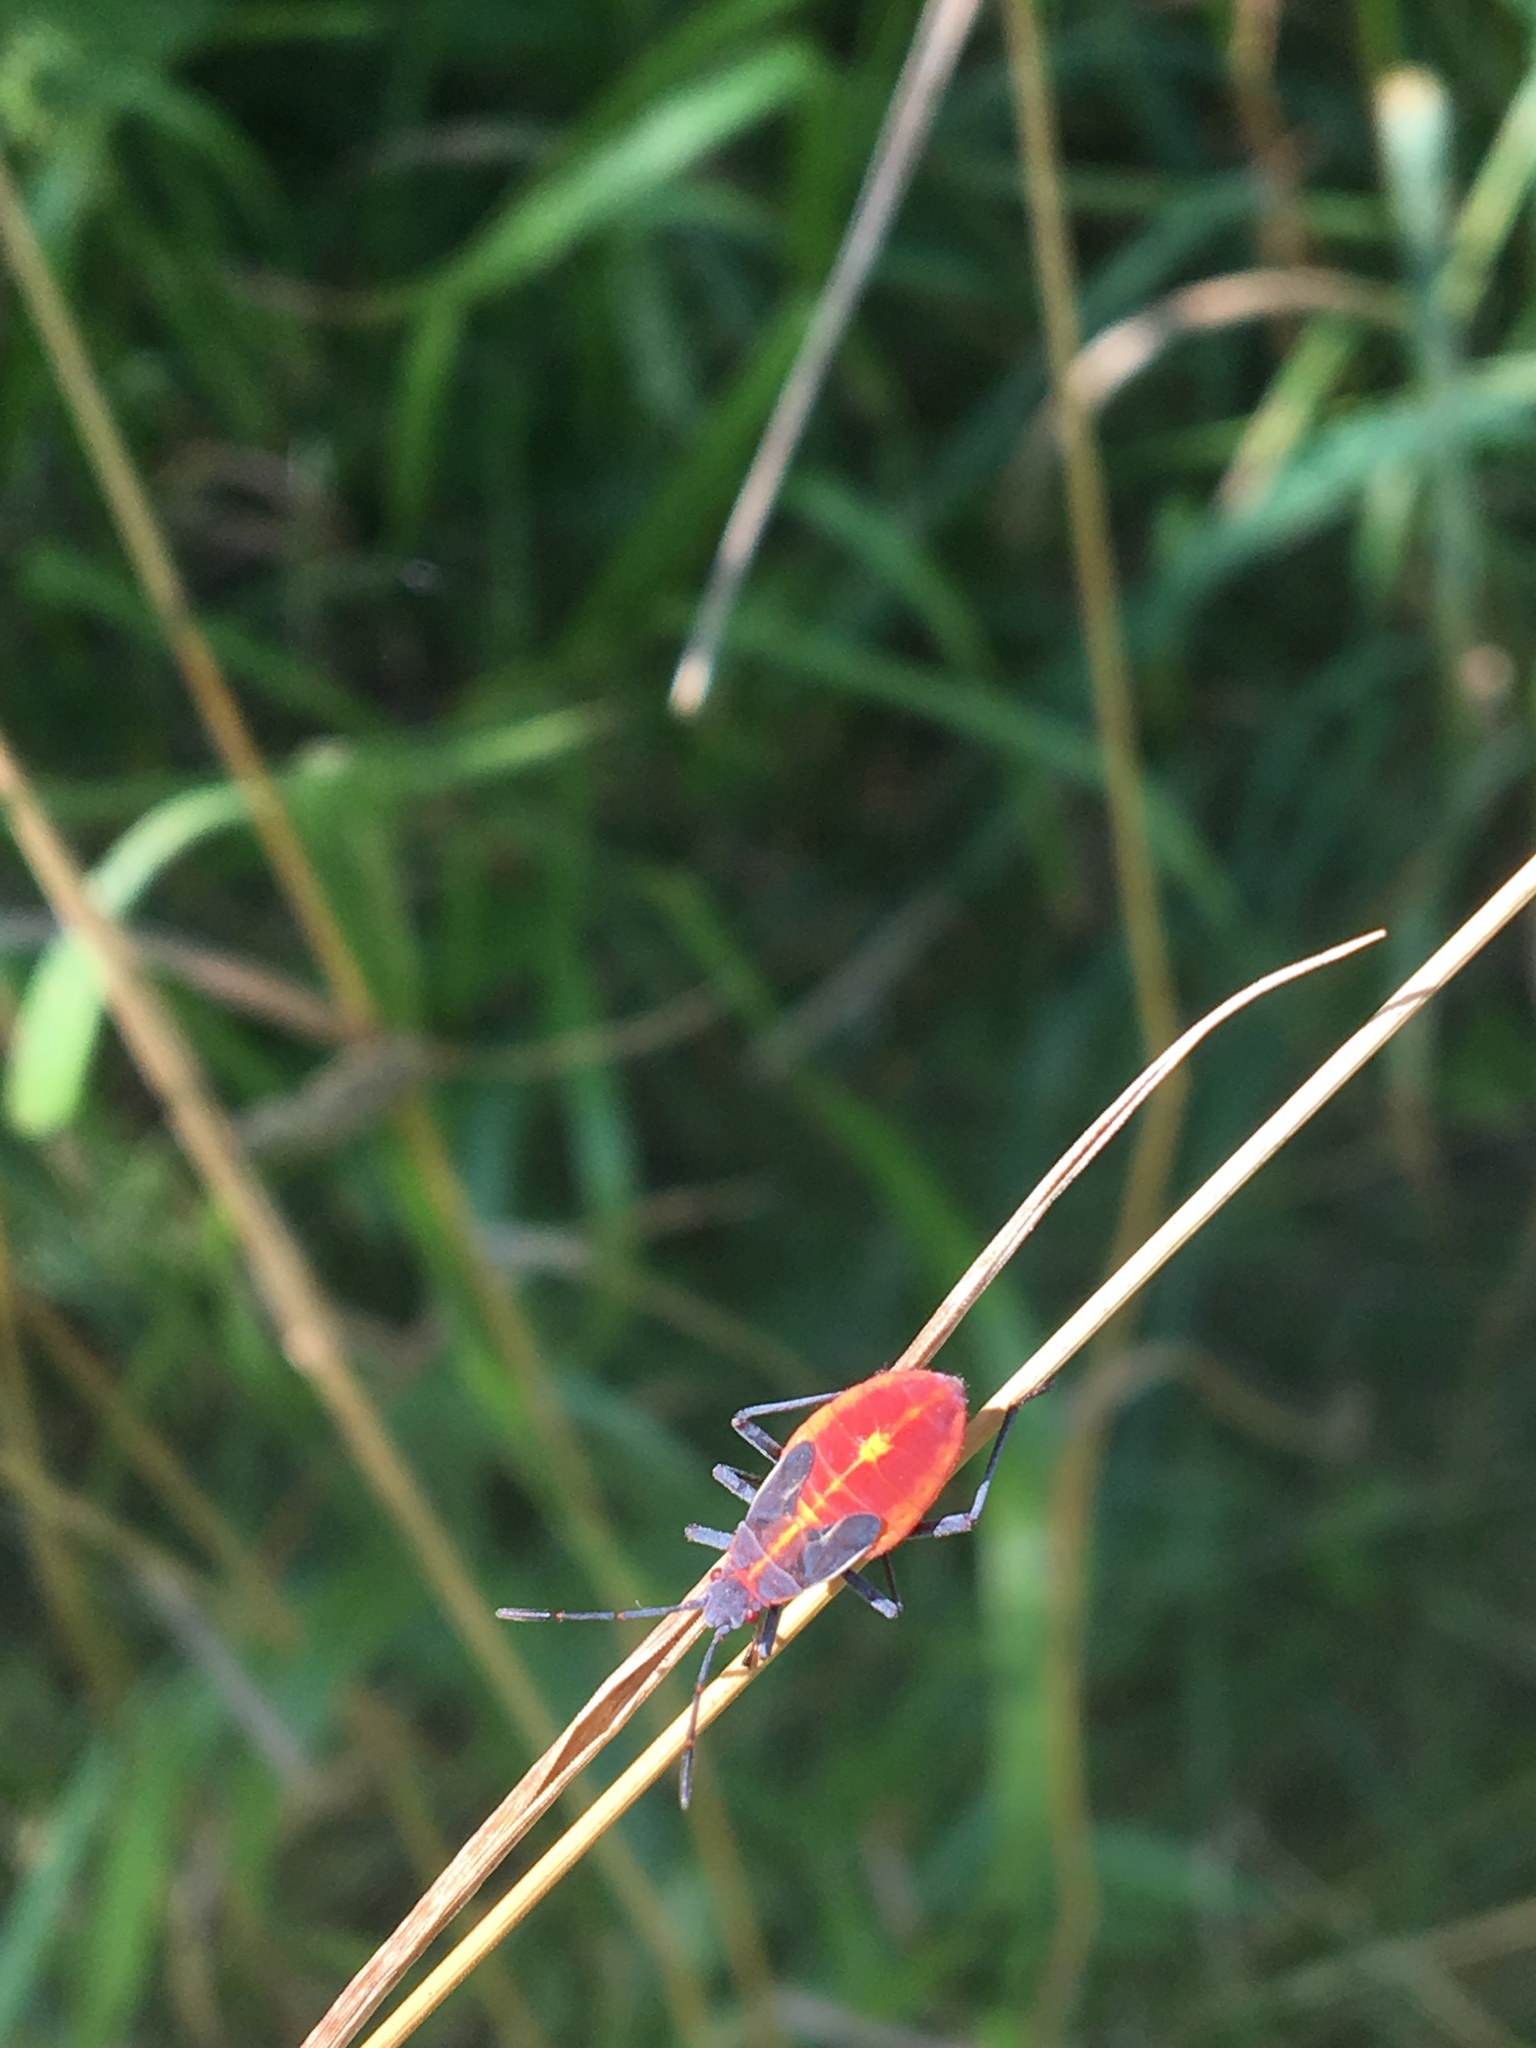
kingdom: Animalia
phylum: Arthropoda
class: Insecta
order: Hemiptera
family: Rhopalidae
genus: Boisea
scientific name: Boisea trivittata
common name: Boxelder bug
